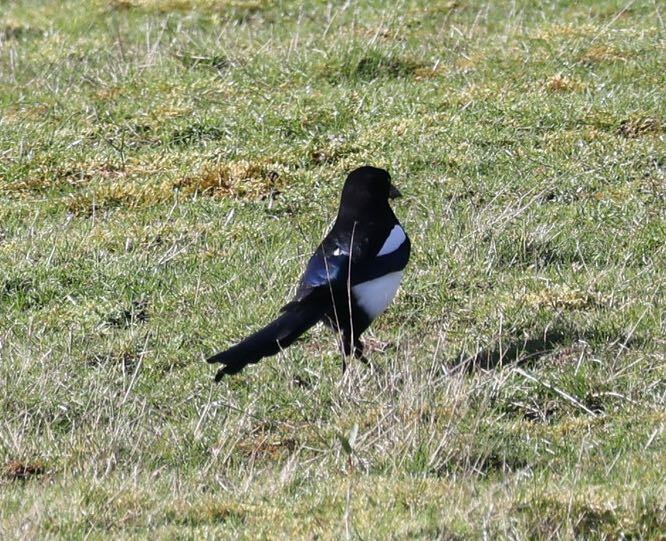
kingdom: Animalia
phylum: Chordata
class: Aves
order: Passeriformes
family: Corvidae
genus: Pica
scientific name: Pica pica
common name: Eurasian magpie
